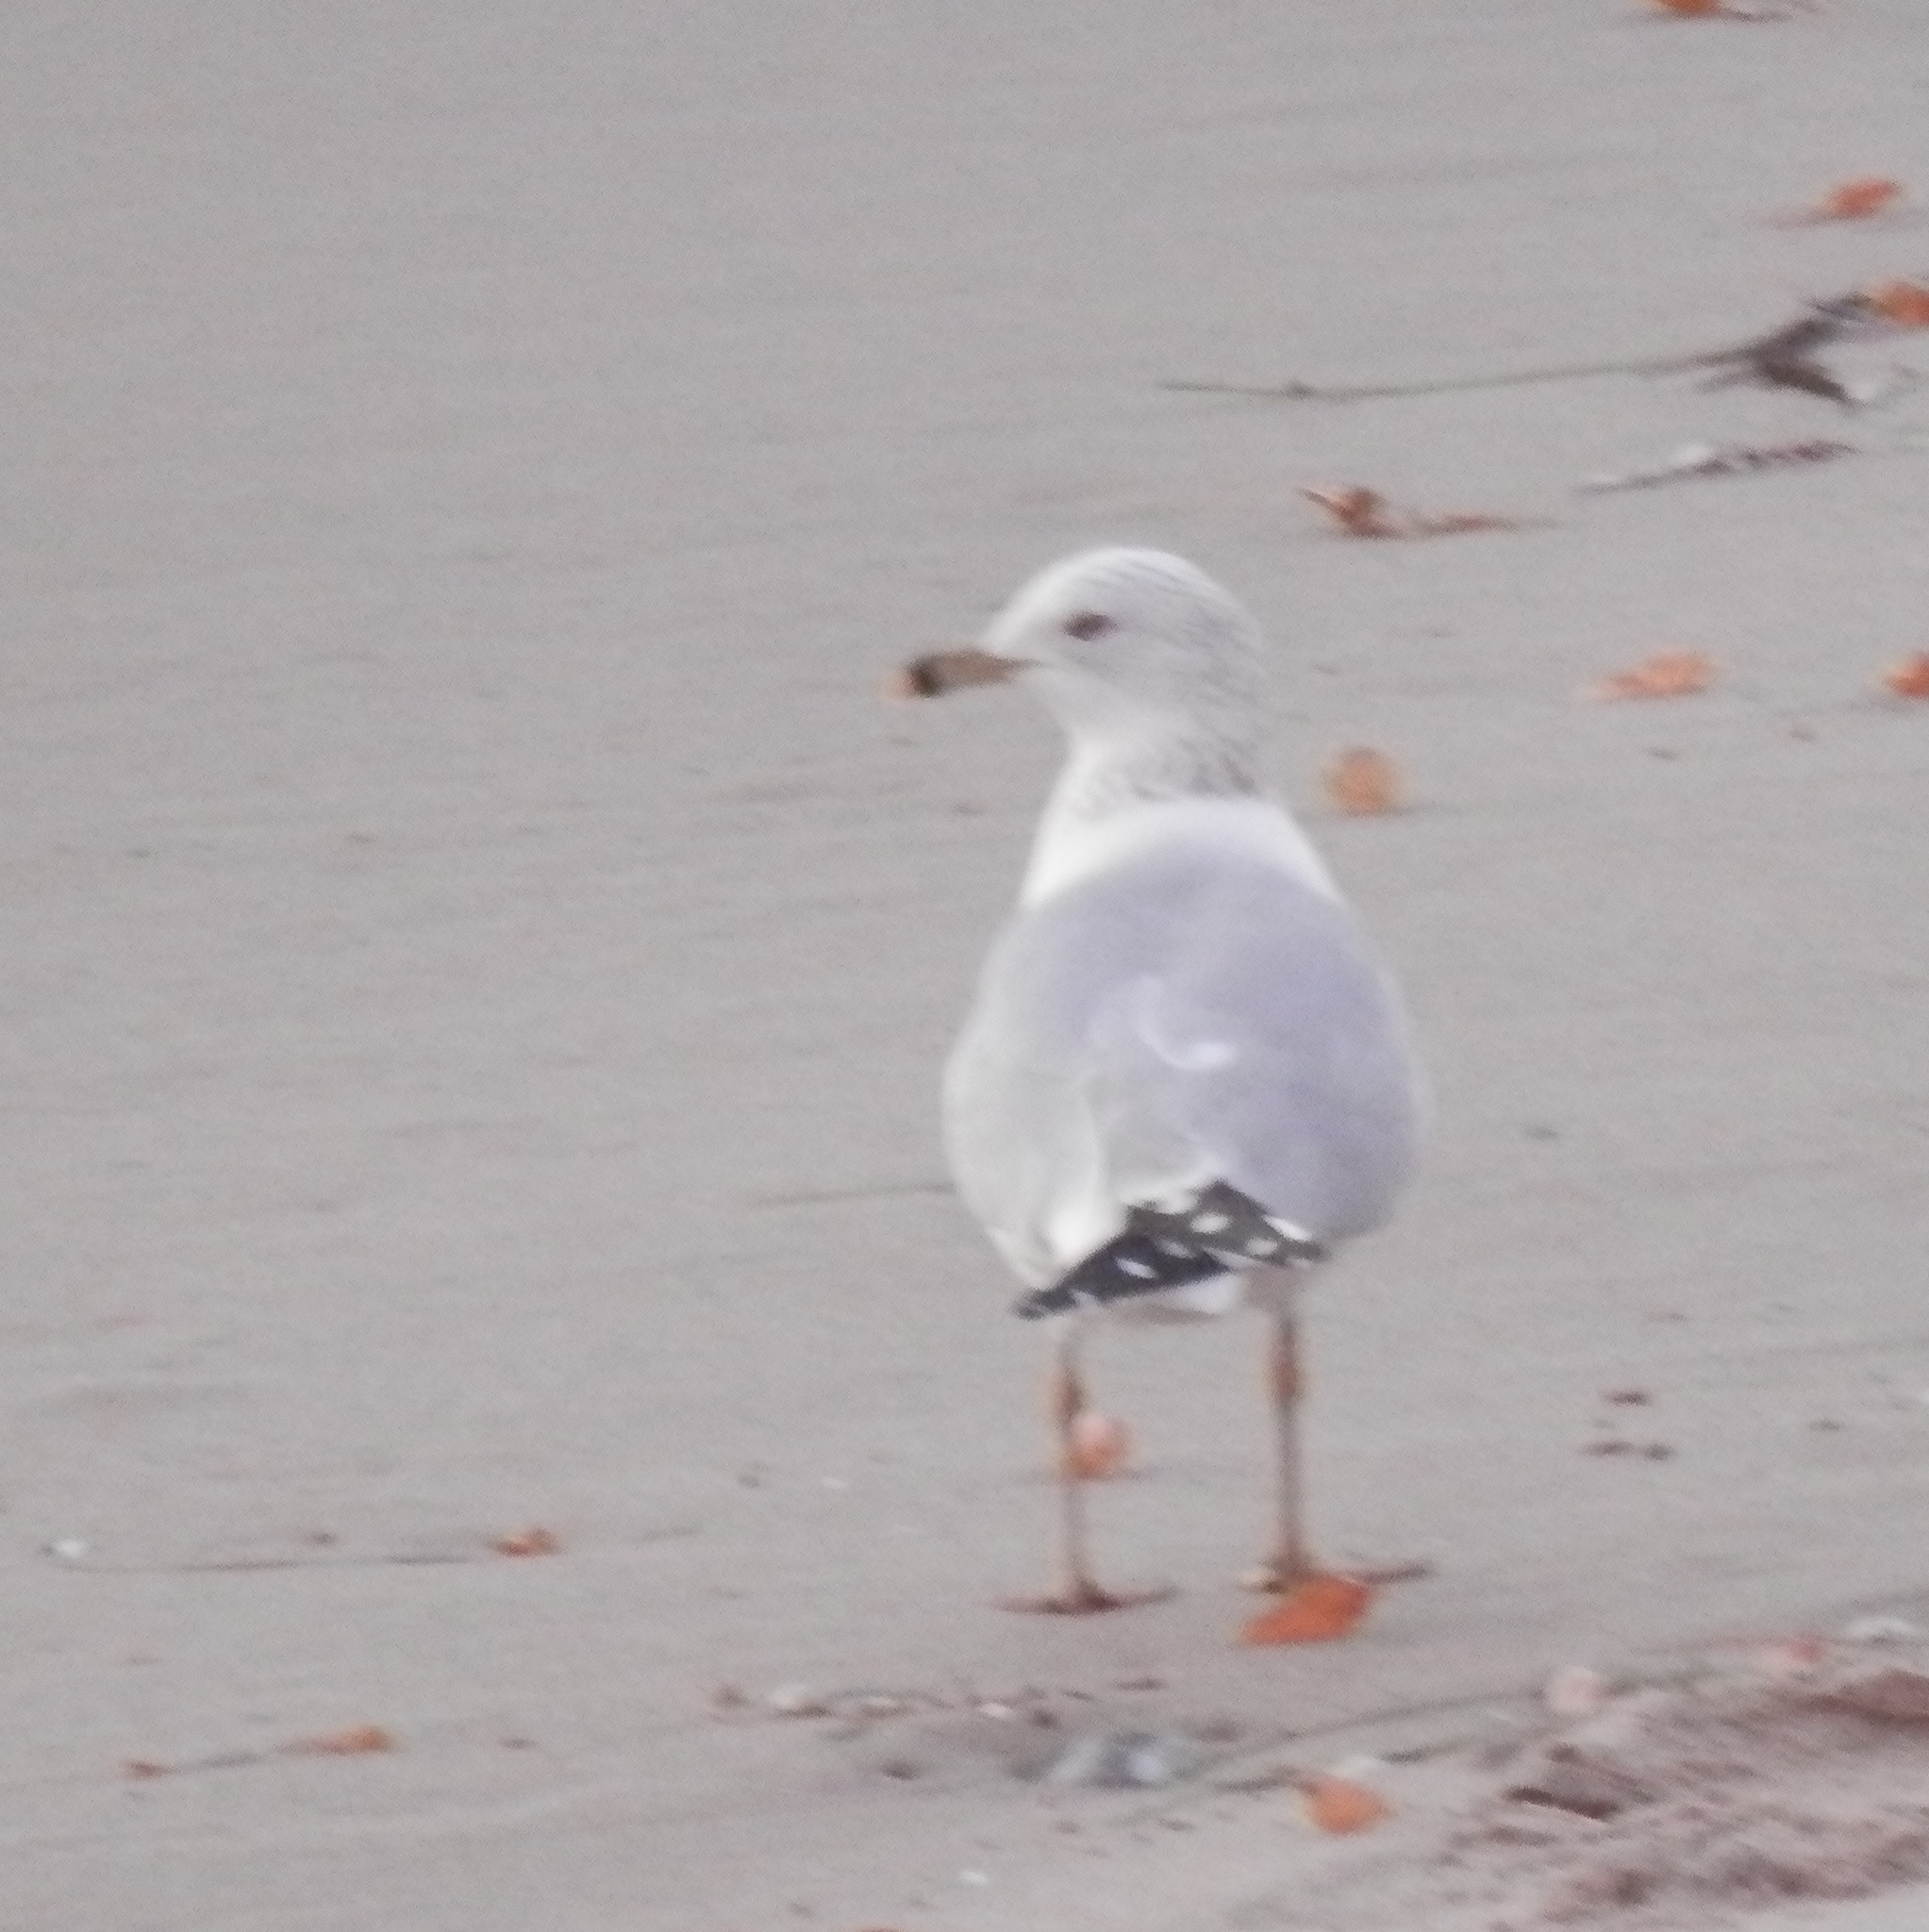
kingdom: Animalia
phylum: Chordata
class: Aves
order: Charadriiformes
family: Laridae
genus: Larus
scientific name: Larus delawarensis
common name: Ring-billed gull
